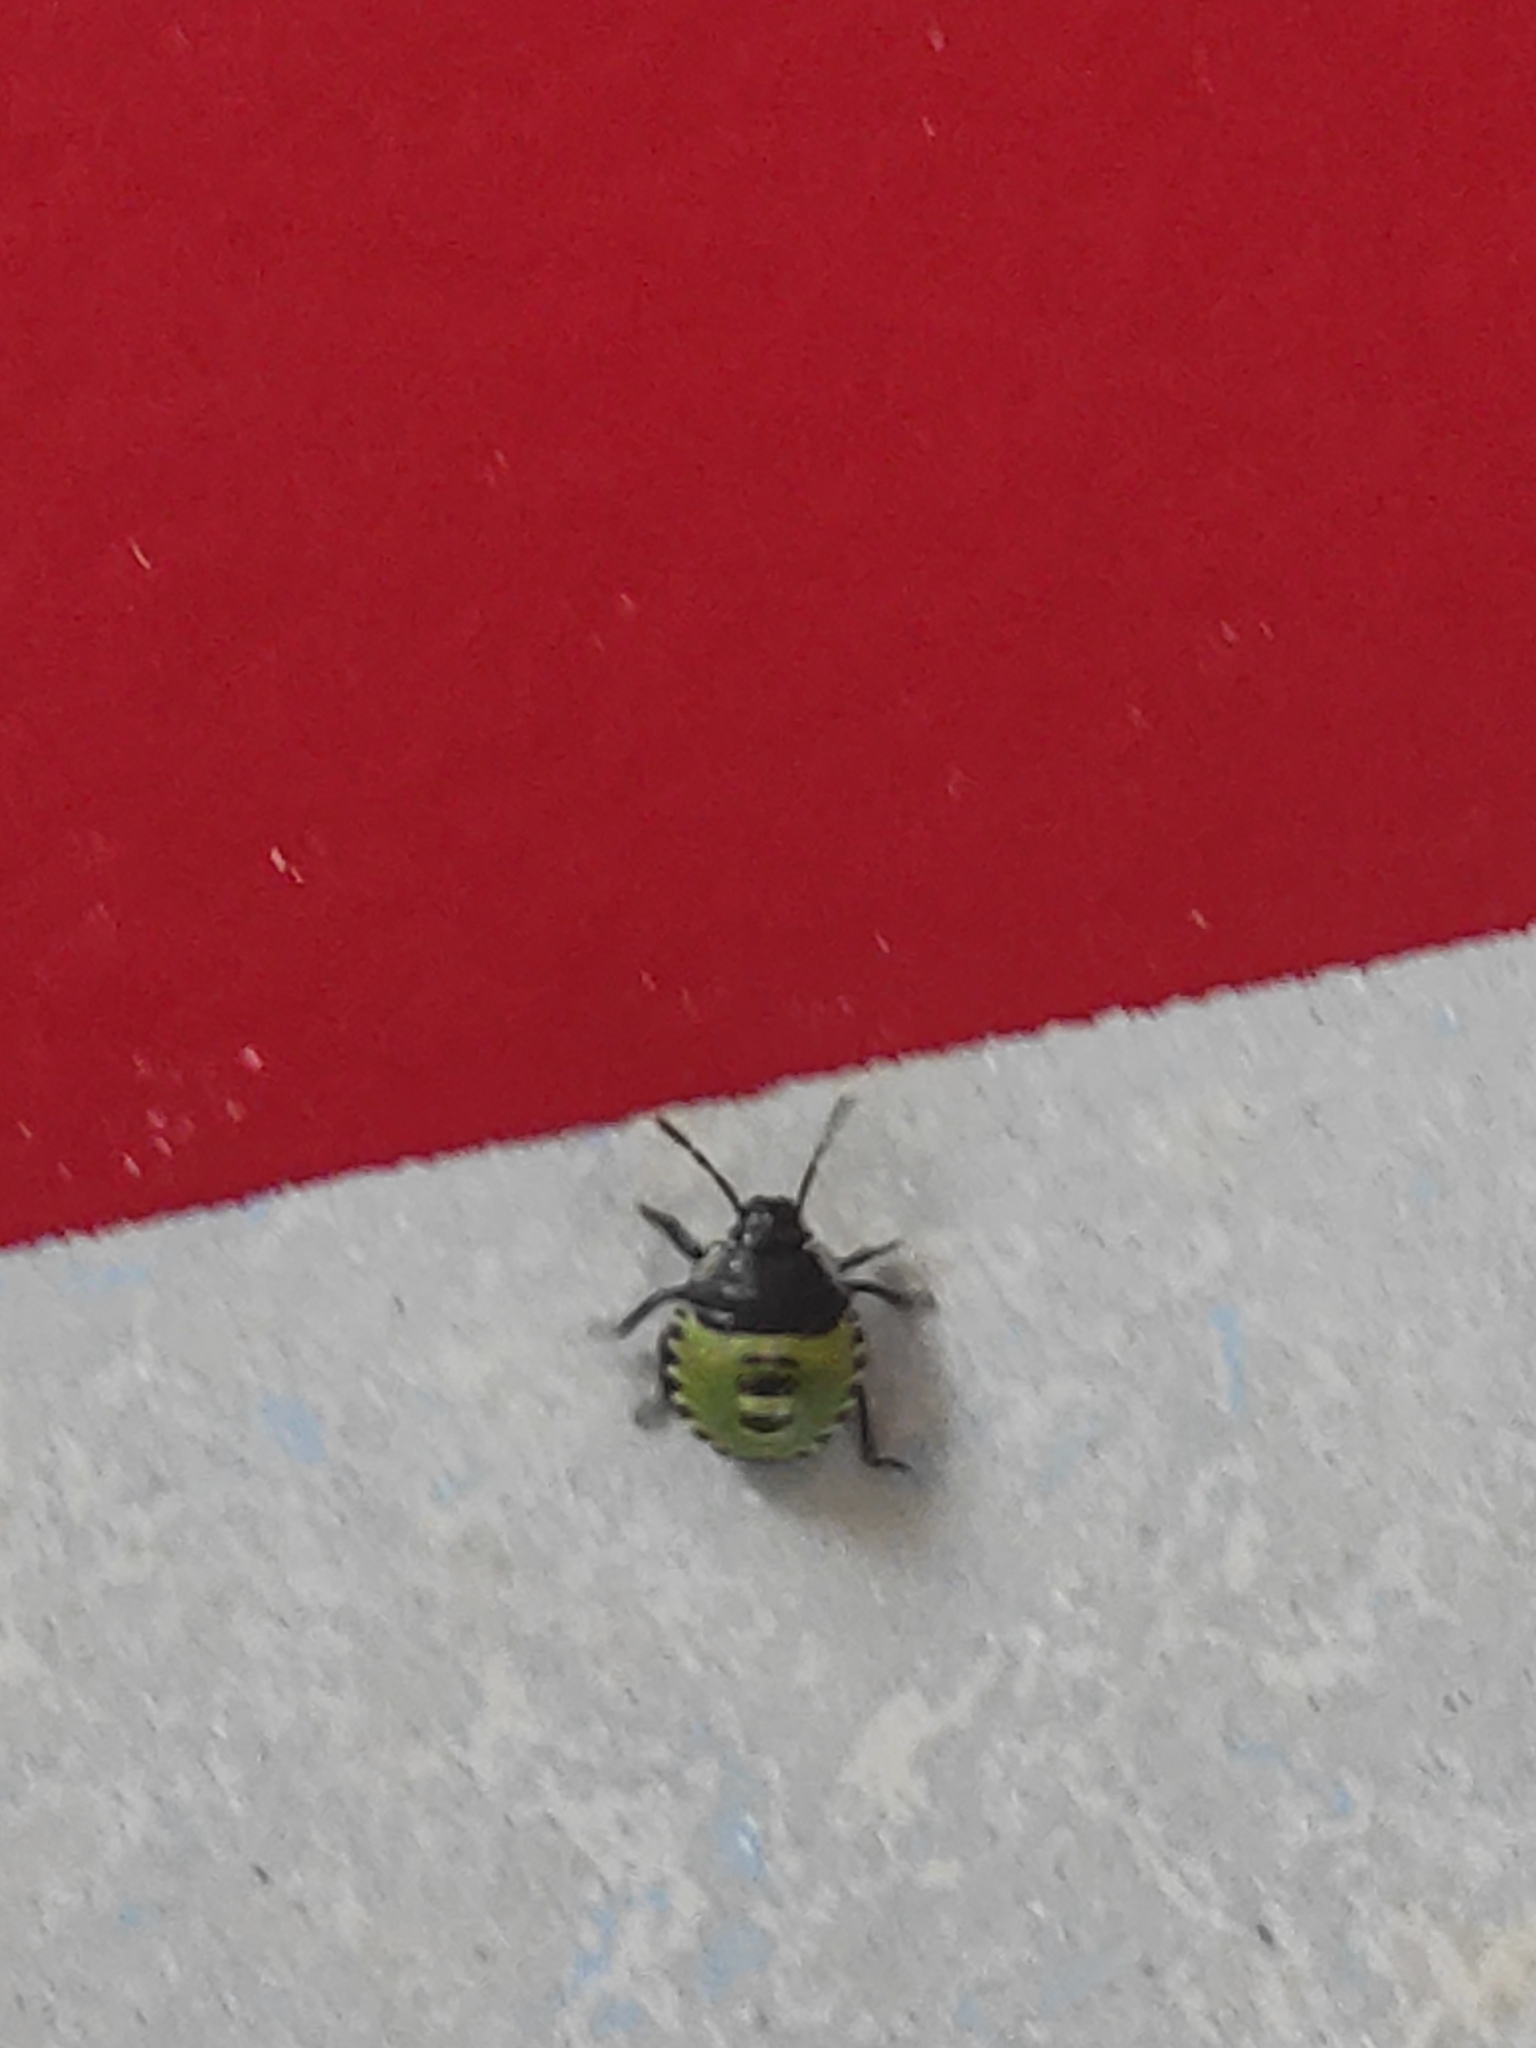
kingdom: Animalia
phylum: Arthropoda
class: Insecta
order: Hemiptera
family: Pentatomidae
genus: Palomena
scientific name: Palomena prasina
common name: Green shieldbug
